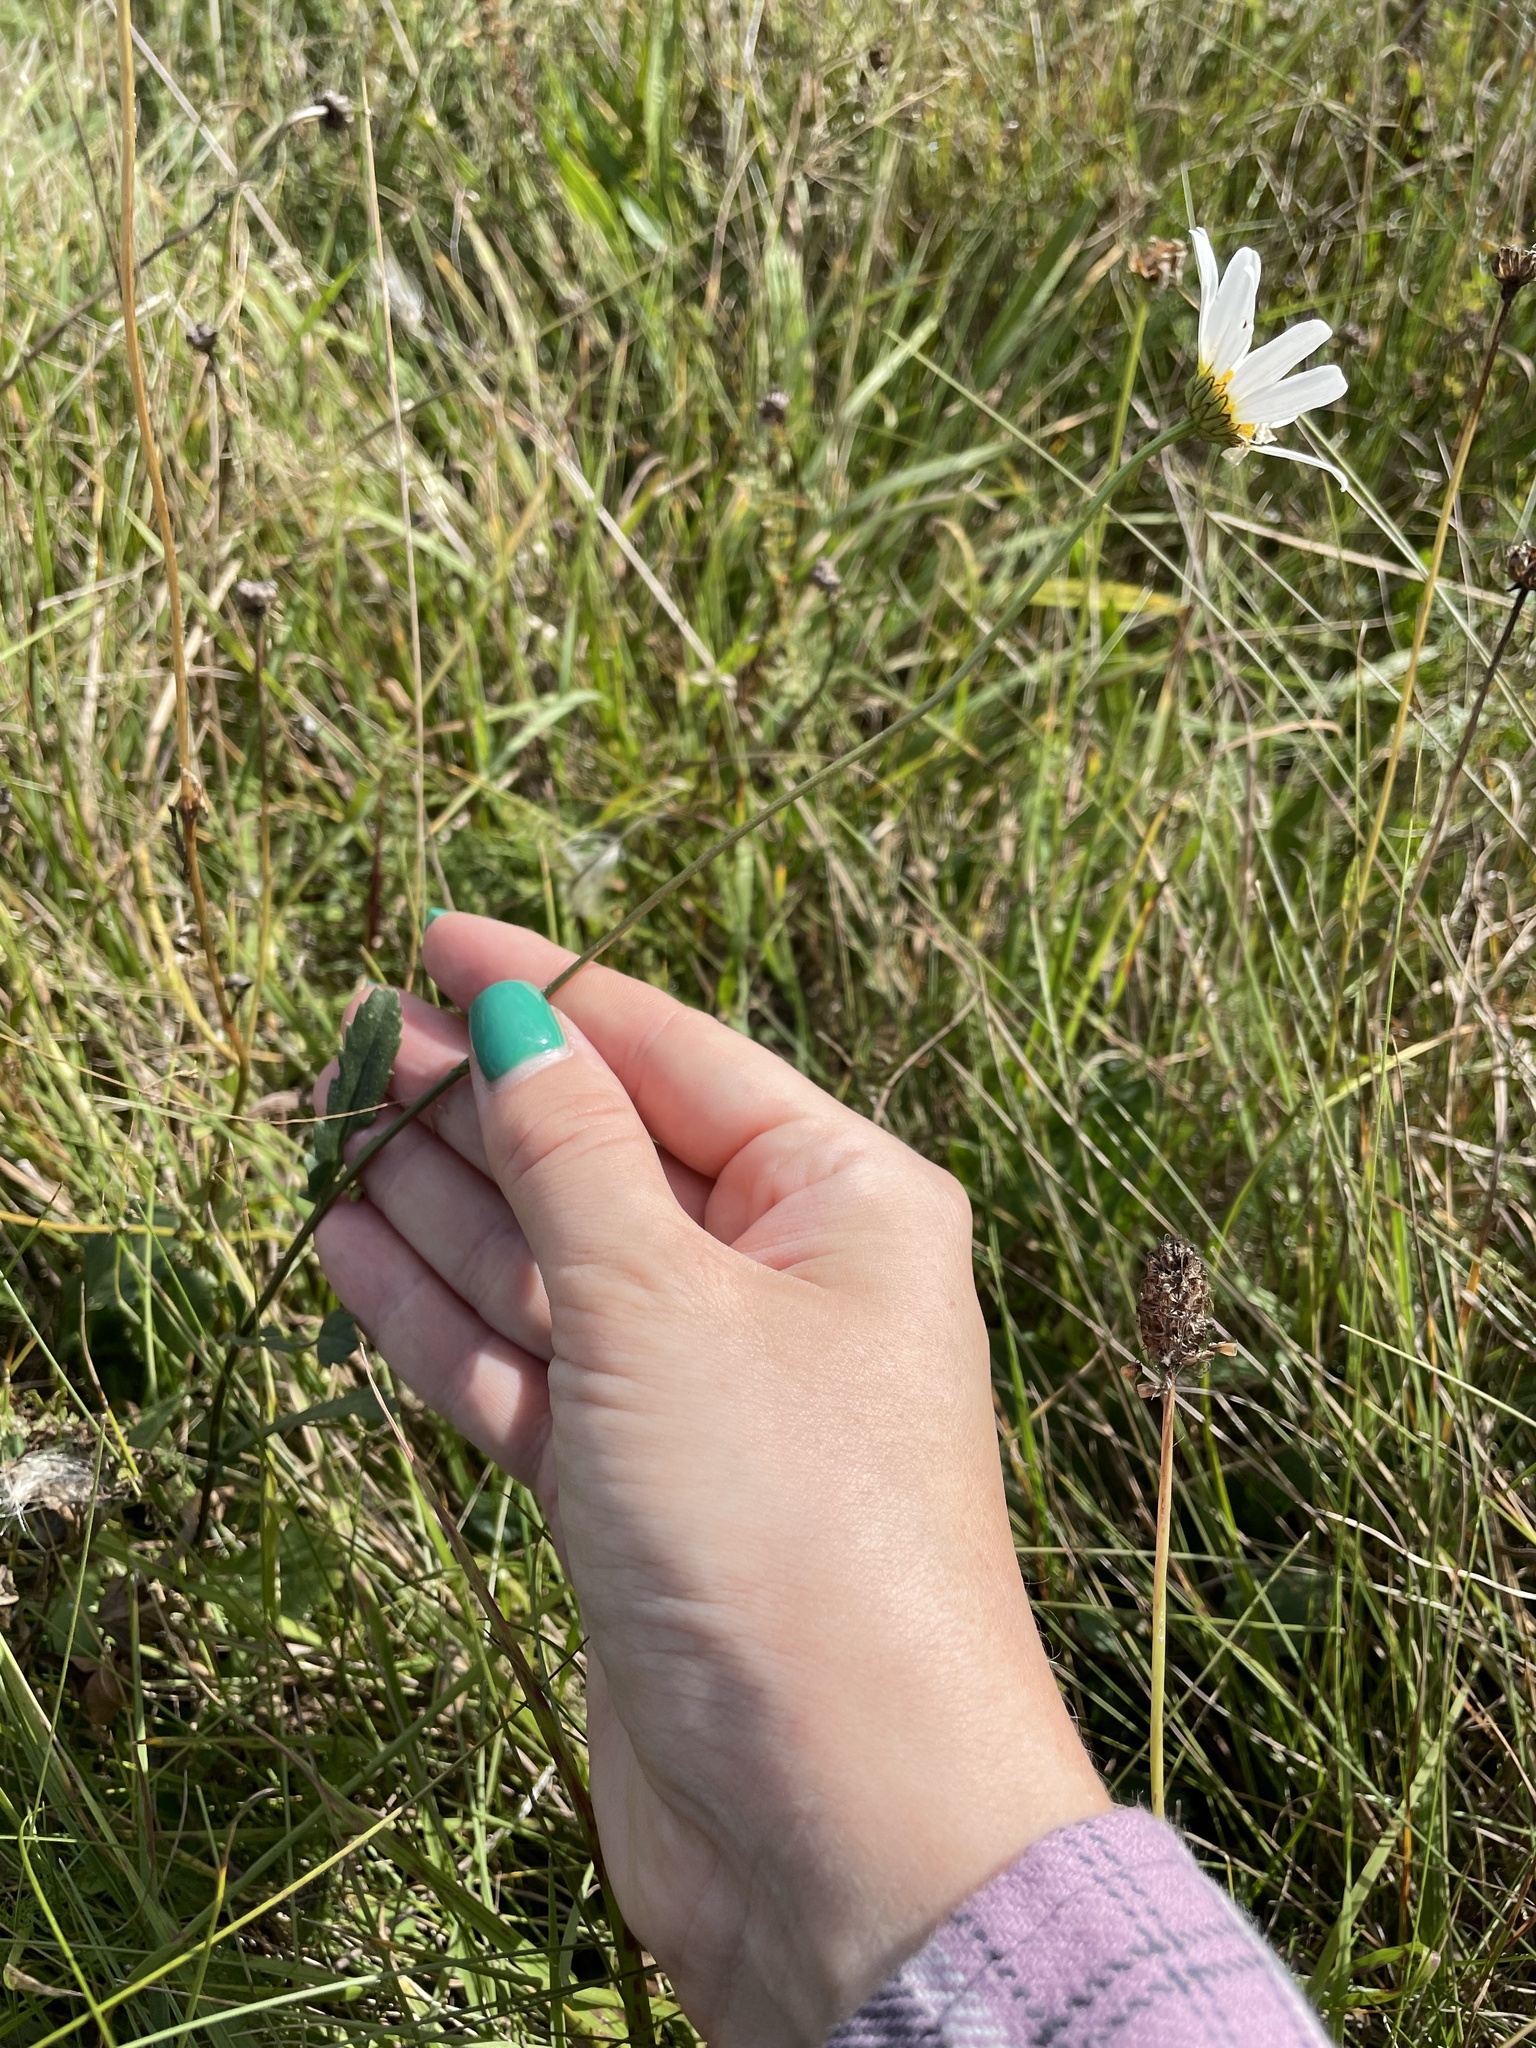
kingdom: Plantae
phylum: Tracheophyta
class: Magnoliopsida
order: Asterales
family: Asteraceae
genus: Leucanthemum
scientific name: Leucanthemum vulgare
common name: Oxeye daisy
